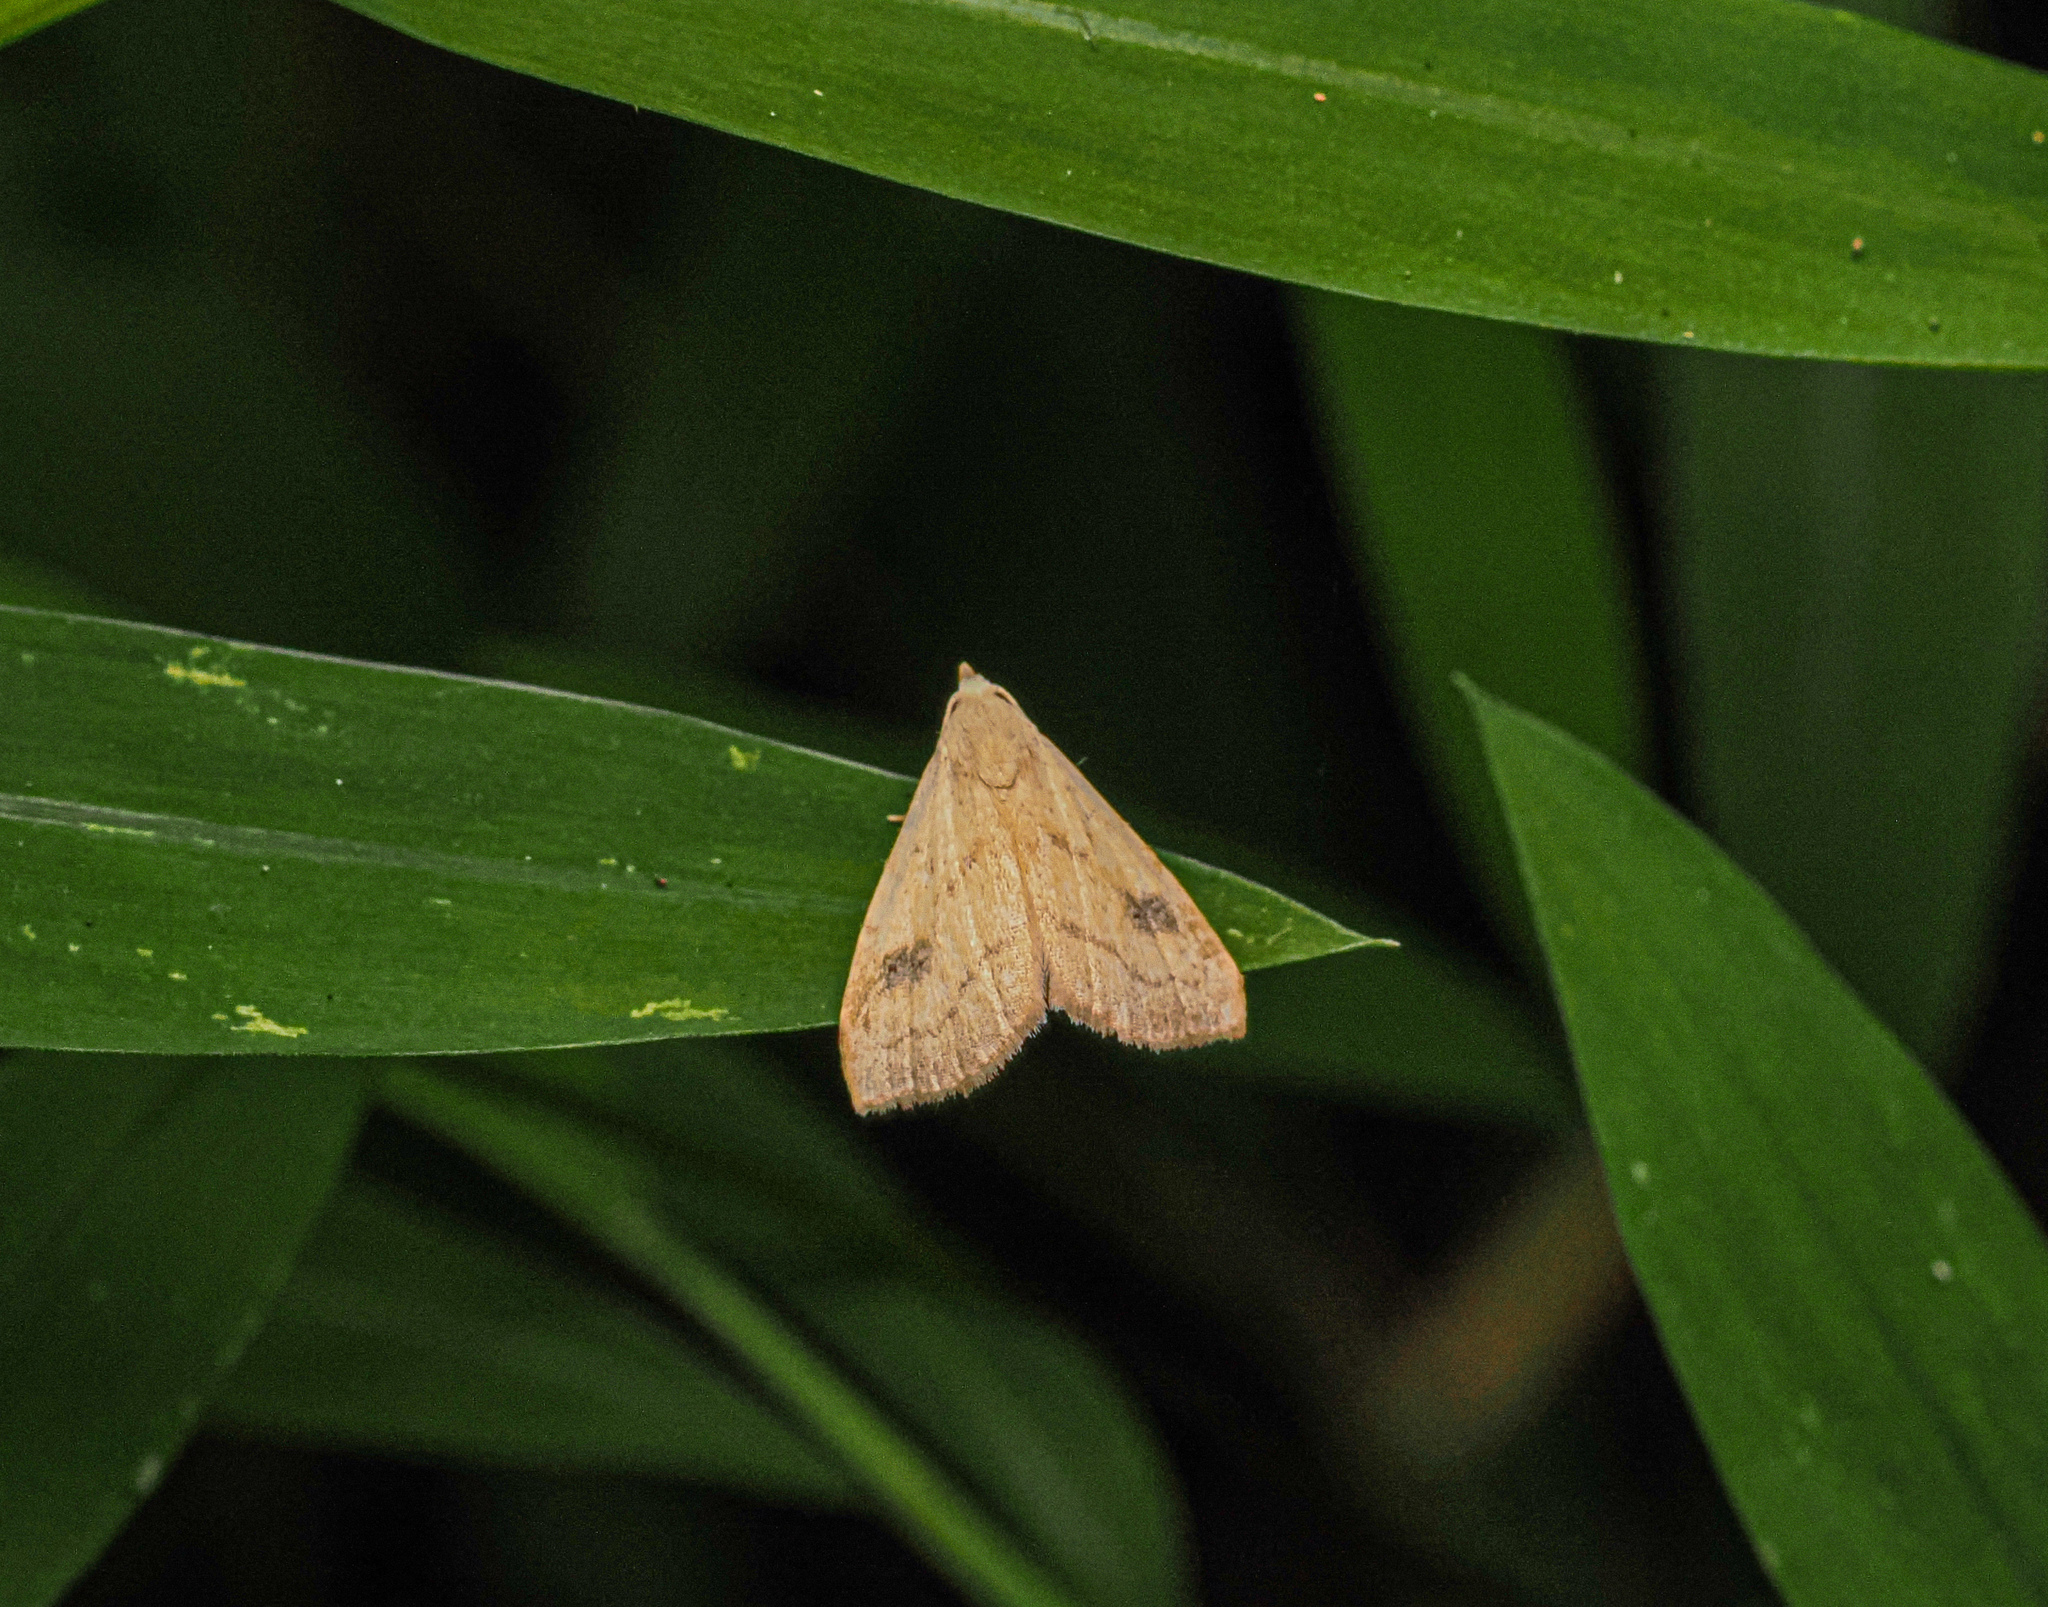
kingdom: Animalia
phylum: Arthropoda
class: Insecta
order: Lepidoptera
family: Erebidae
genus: Rivula
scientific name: Rivula propinqualis
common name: Spotted grass moth
